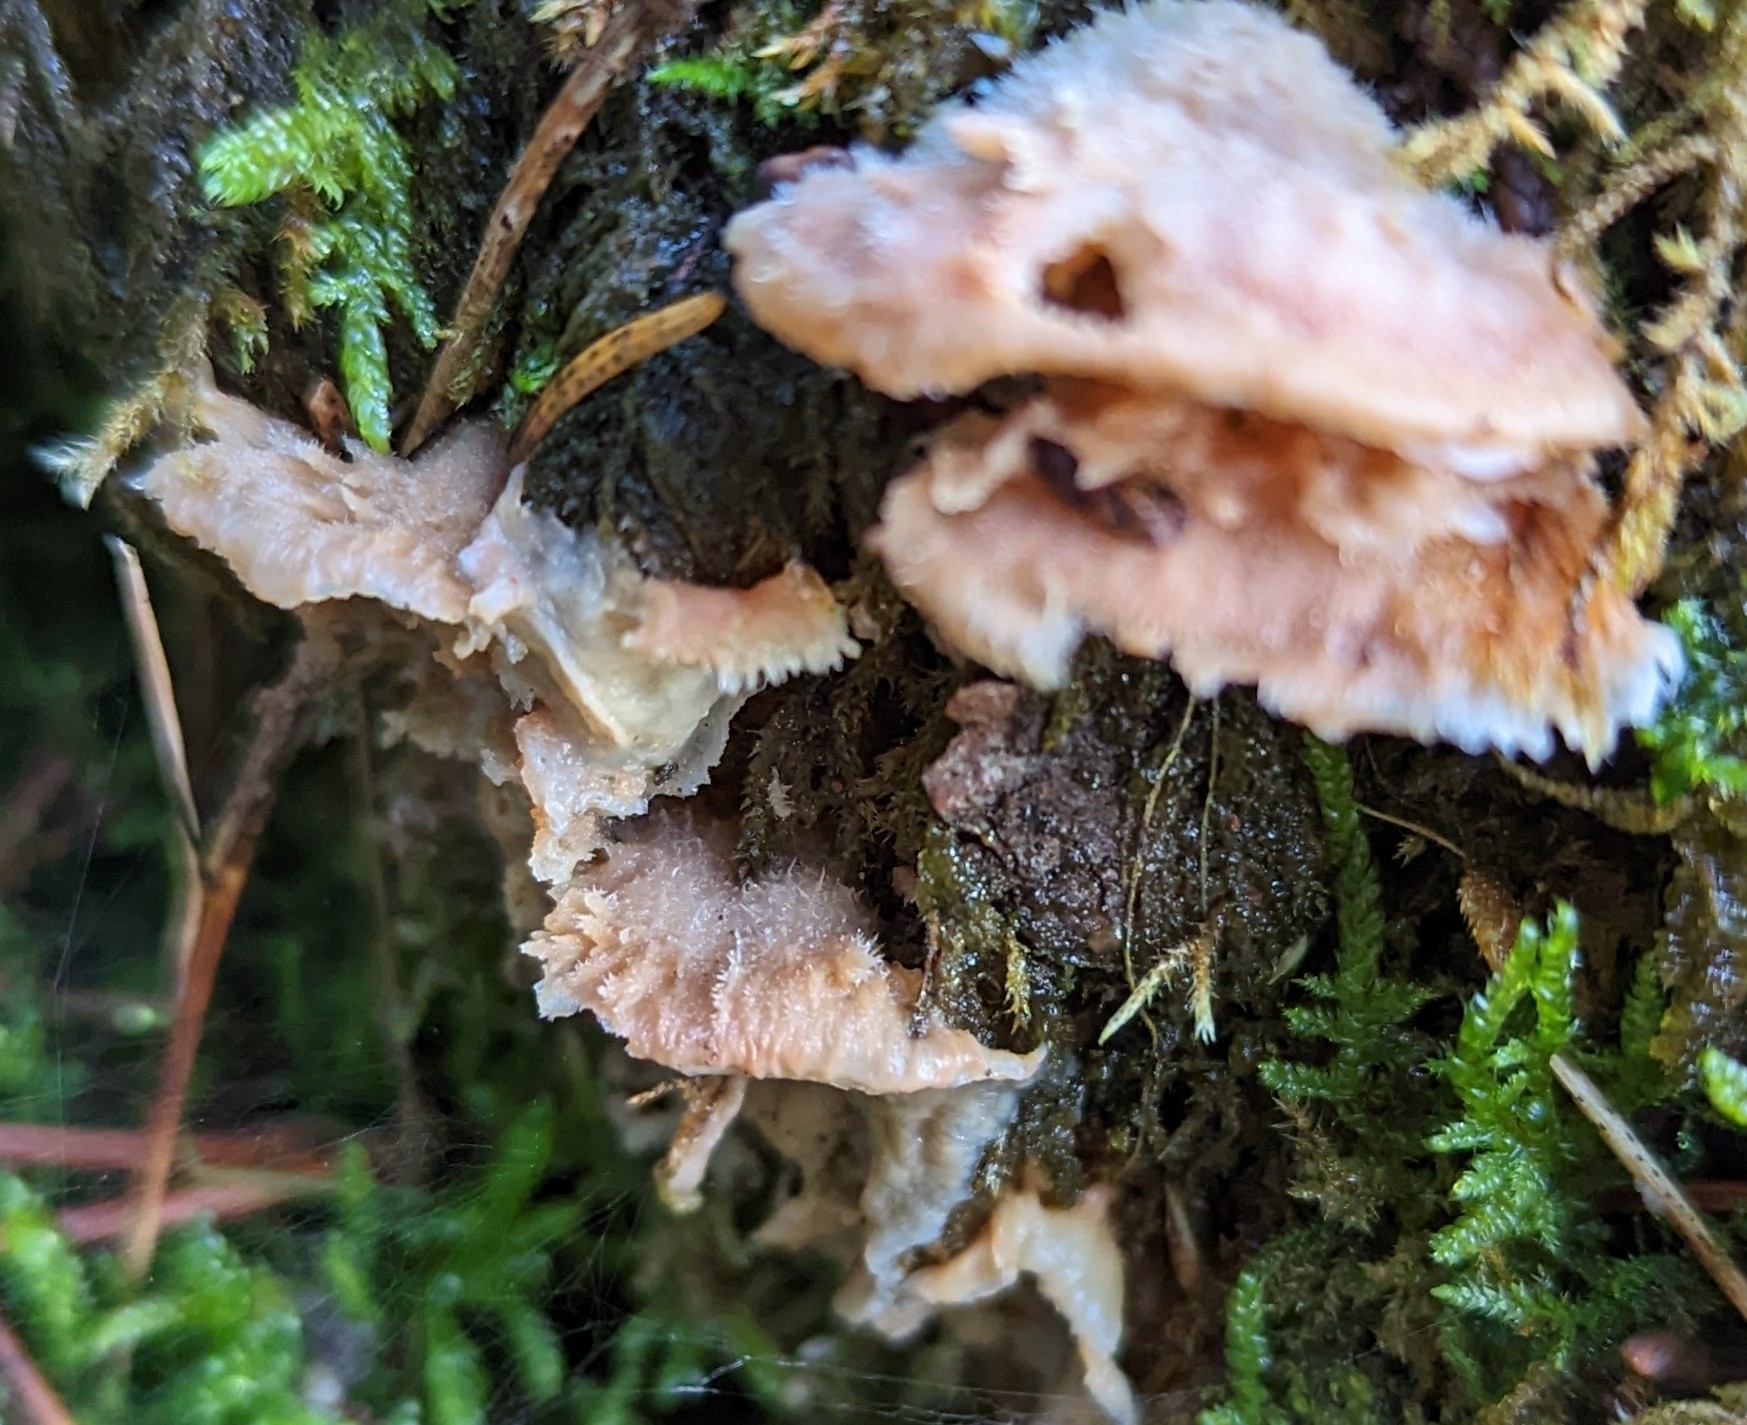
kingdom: Fungi
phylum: Basidiomycota
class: Agaricomycetes
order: Polyporales
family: Meruliaceae
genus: Phlebia
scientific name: Phlebia tremellosa
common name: Jelly rot
